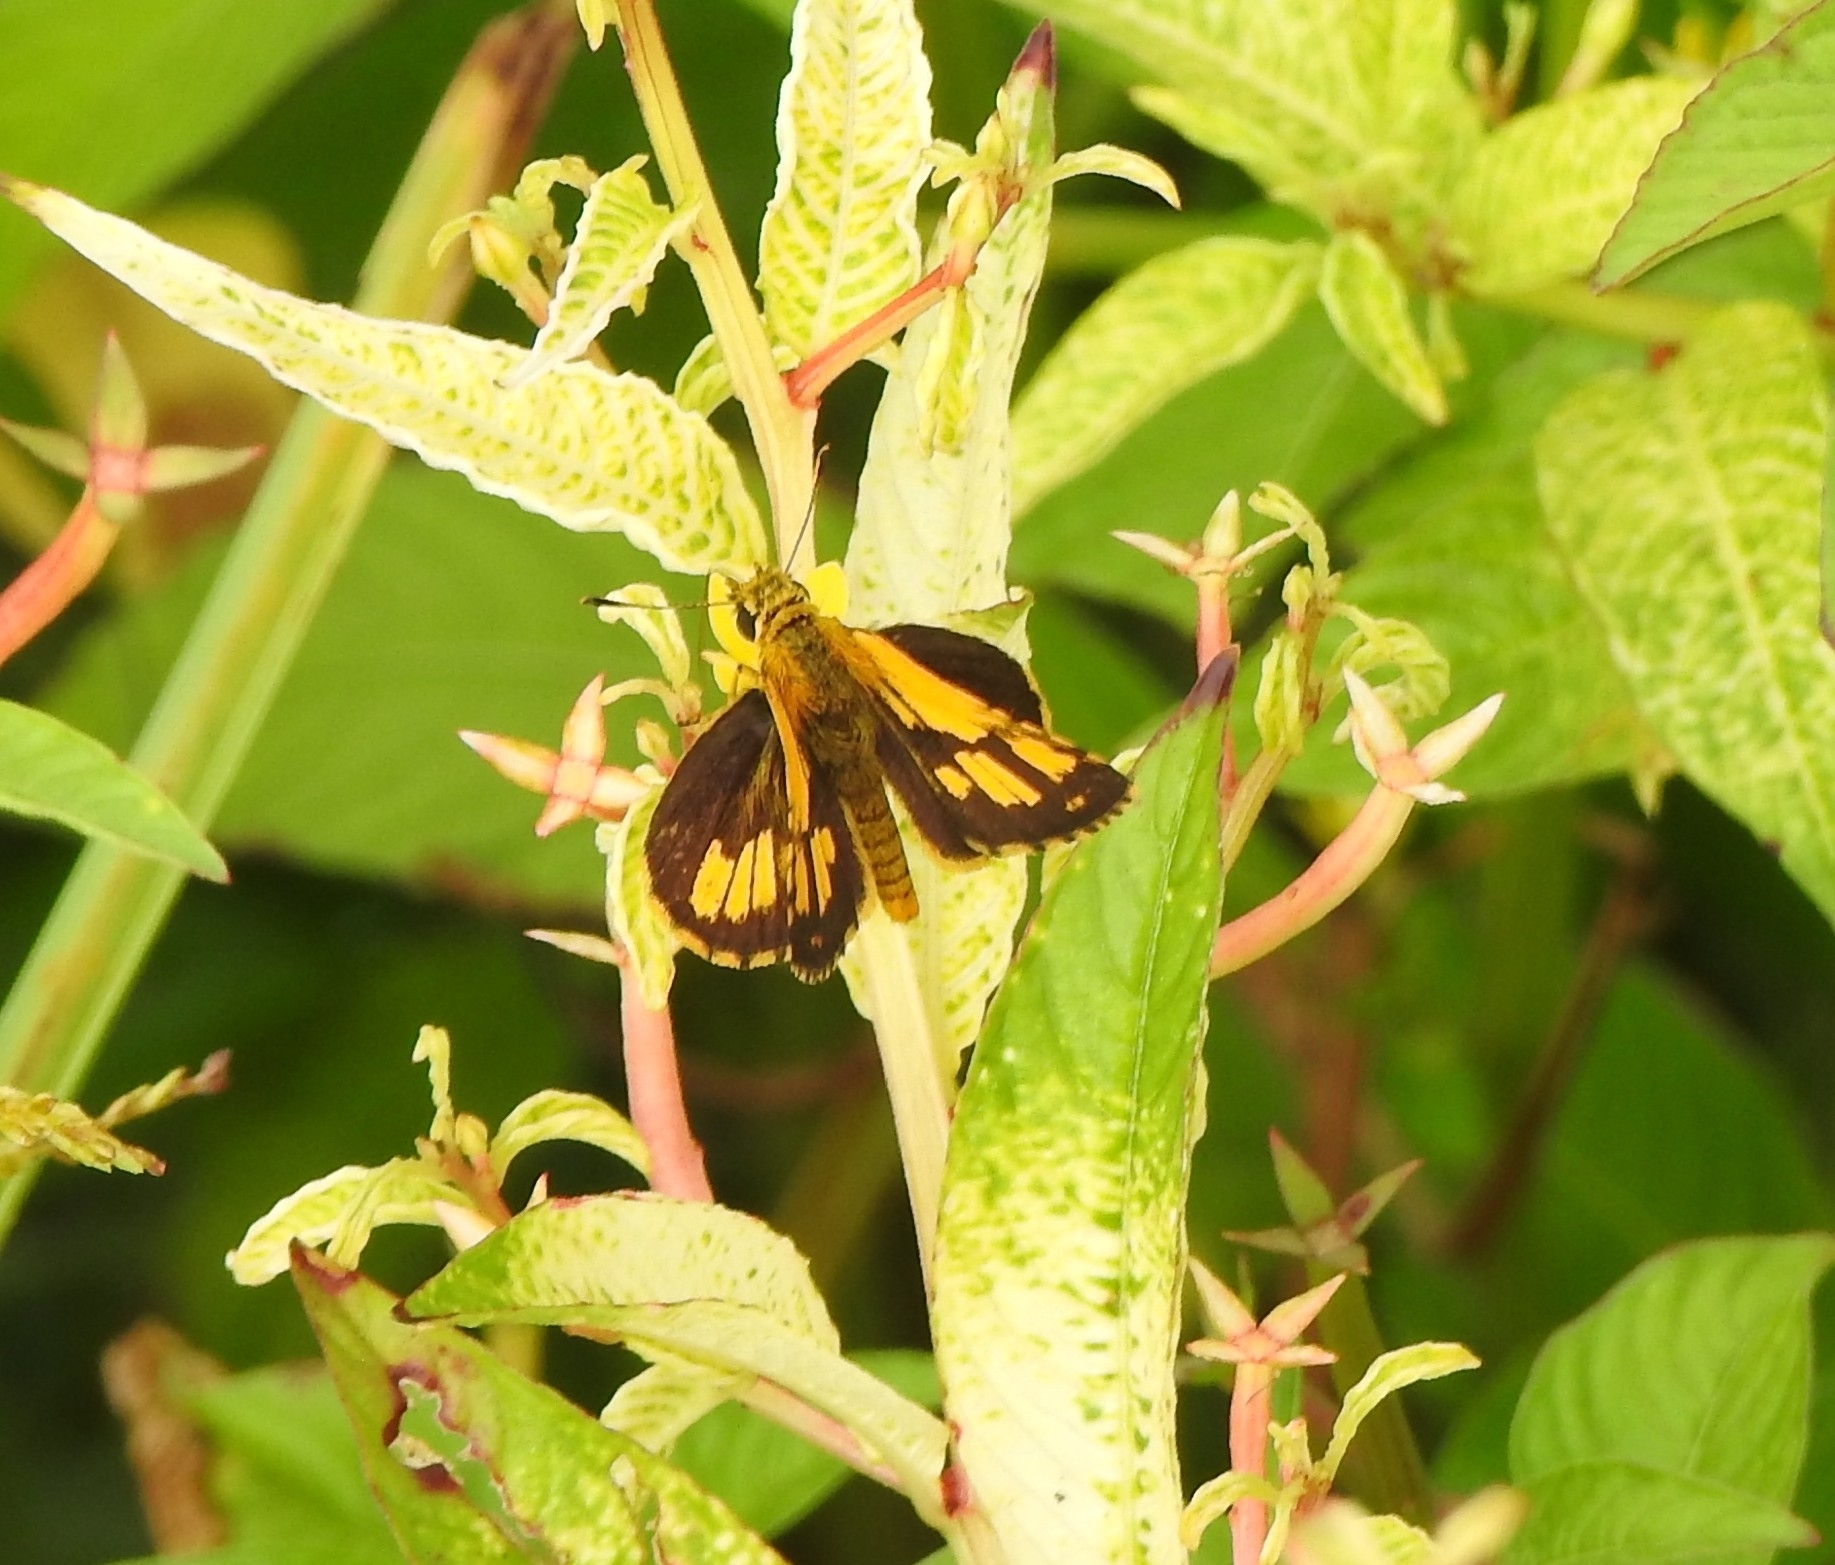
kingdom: Animalia
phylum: Arthropoda
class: Insecta
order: Lepidoptera
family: Hesperiidae
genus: Ampittia
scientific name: Ampittia dioscorides
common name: Common bush hopper
